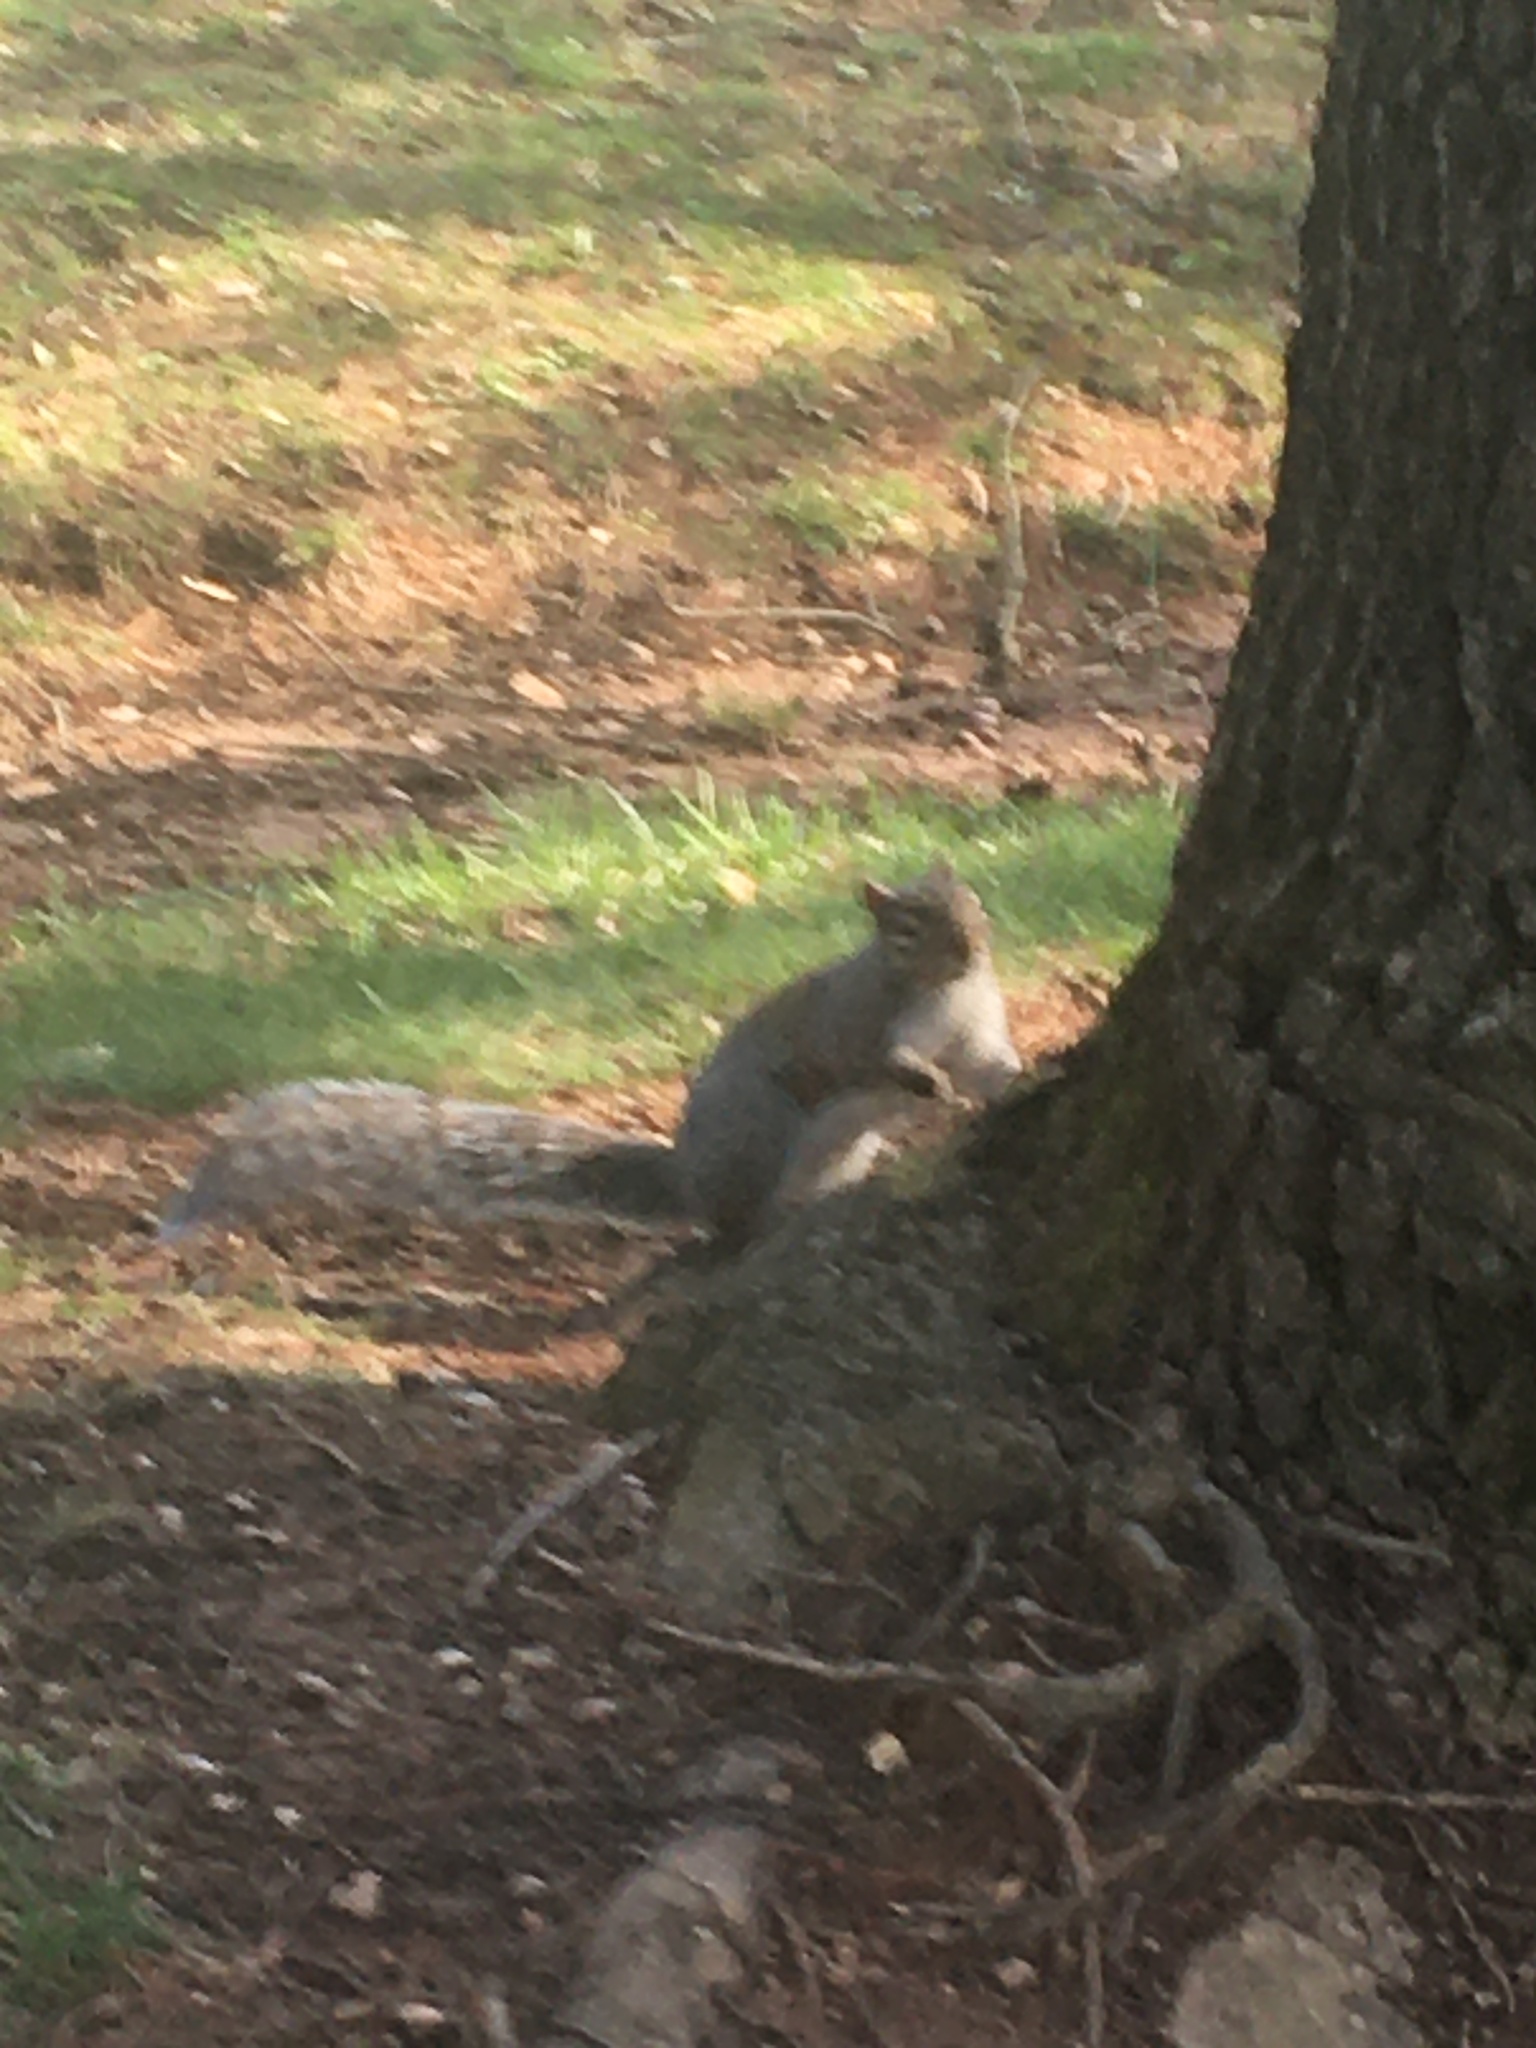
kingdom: Animalia
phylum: Chordata
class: Mammalia
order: Rodentia
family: Sciuridae
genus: Sciurus
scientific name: Sciurus carolinensis
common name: Eastern gray squirrel
